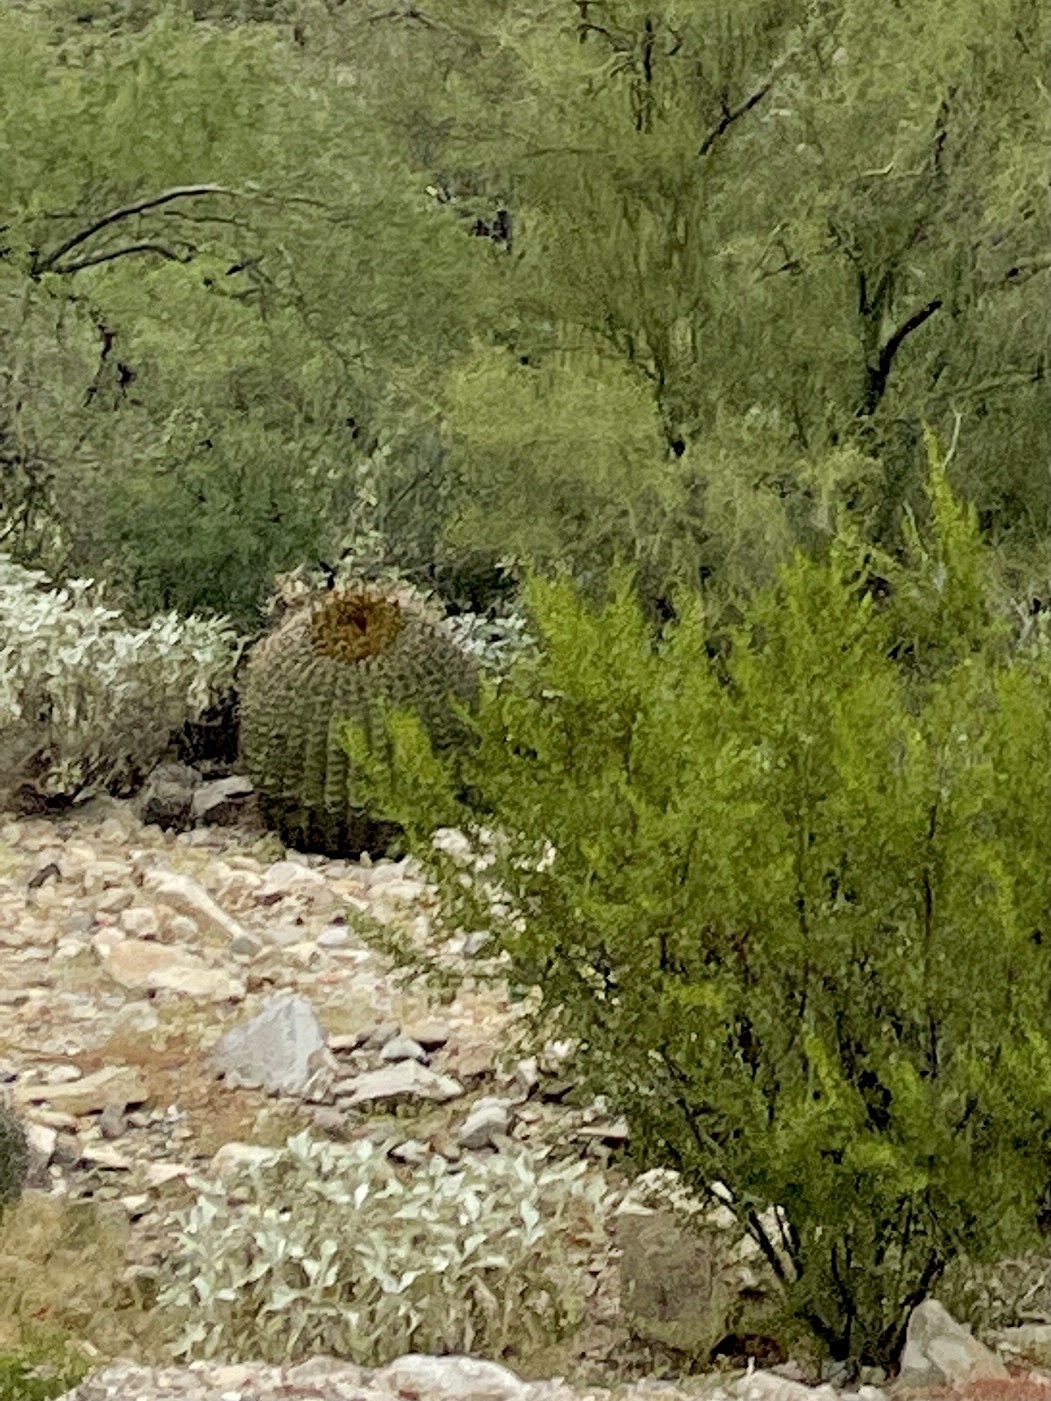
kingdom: Plantae
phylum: Tracheophyta
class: Magnoliopsida
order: Caryophyllales
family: Cactaceae
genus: Ferocactus
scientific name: Ferocactus wislizeni
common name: Candy barrel cactus
